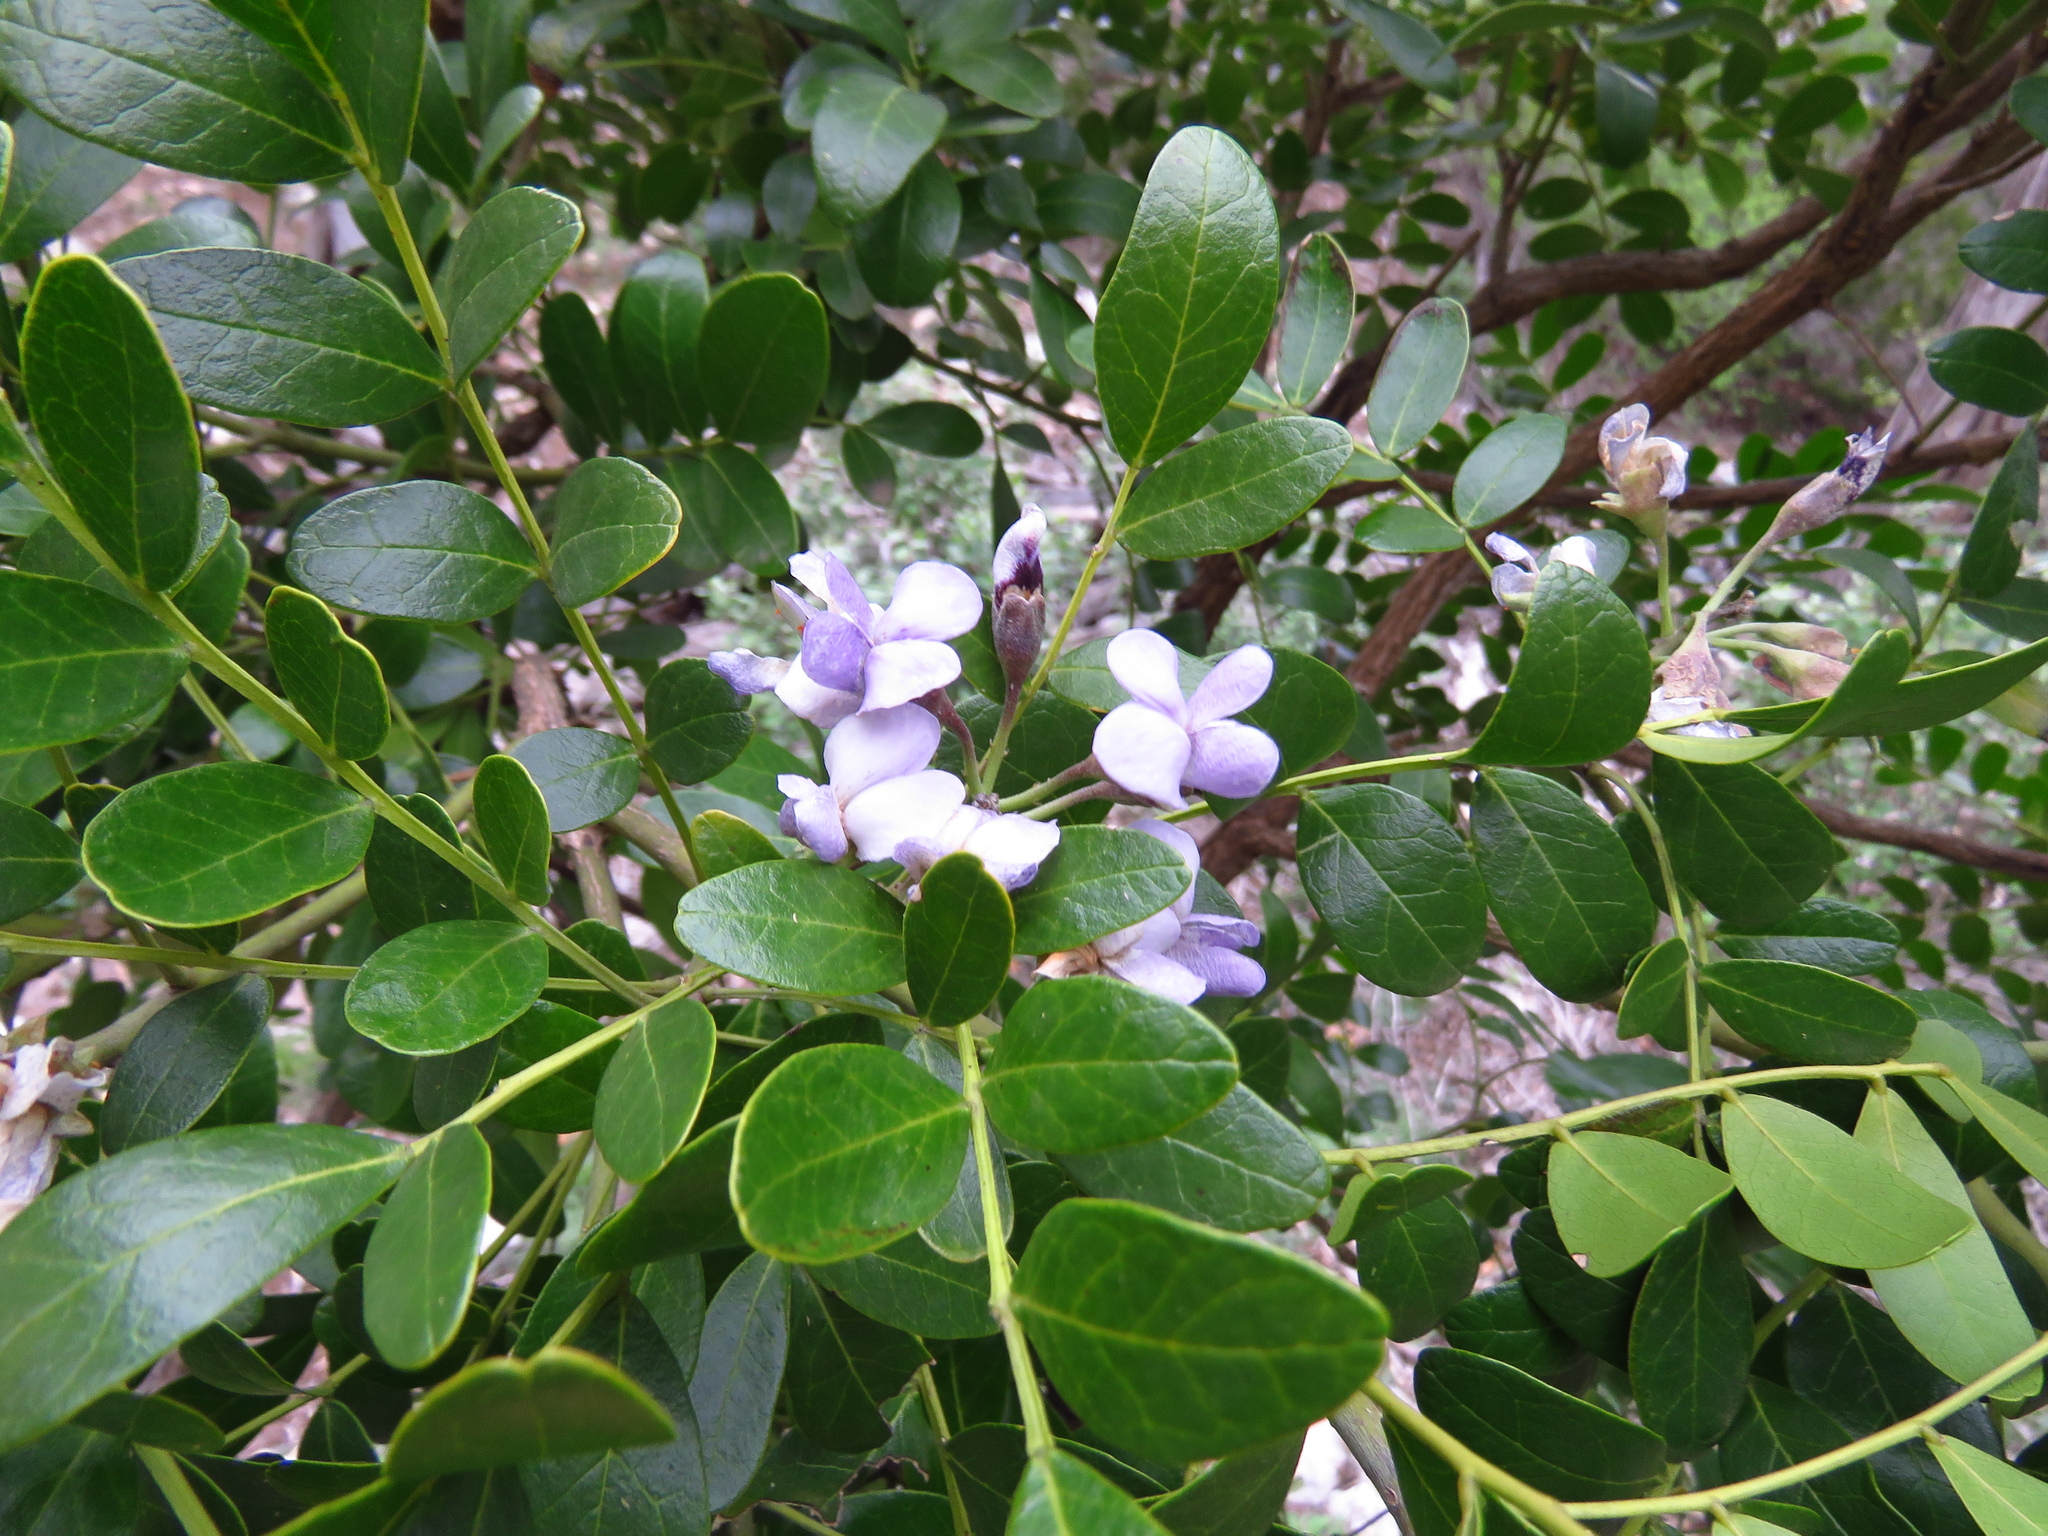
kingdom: Plantae
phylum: Tracheophyta
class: Magnoliopsida
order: Fabales
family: Fabaceae
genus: Dermatophyllum
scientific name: Dermatophyllum secundiflorum
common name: Texas-mountain-laurel
